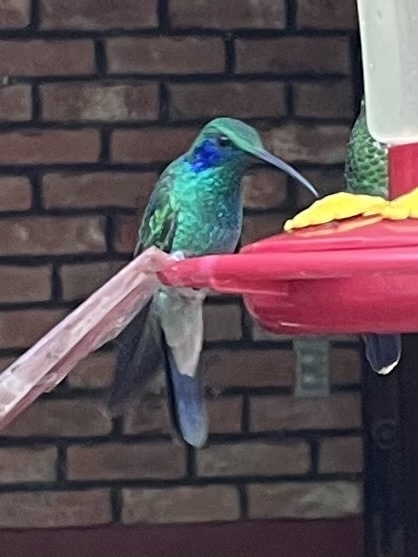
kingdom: Animalia
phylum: Chordata
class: Aves
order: Apodiformes
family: Trochilidae
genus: Colibri
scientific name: Colibri cyanotus
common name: Lesser violetear
